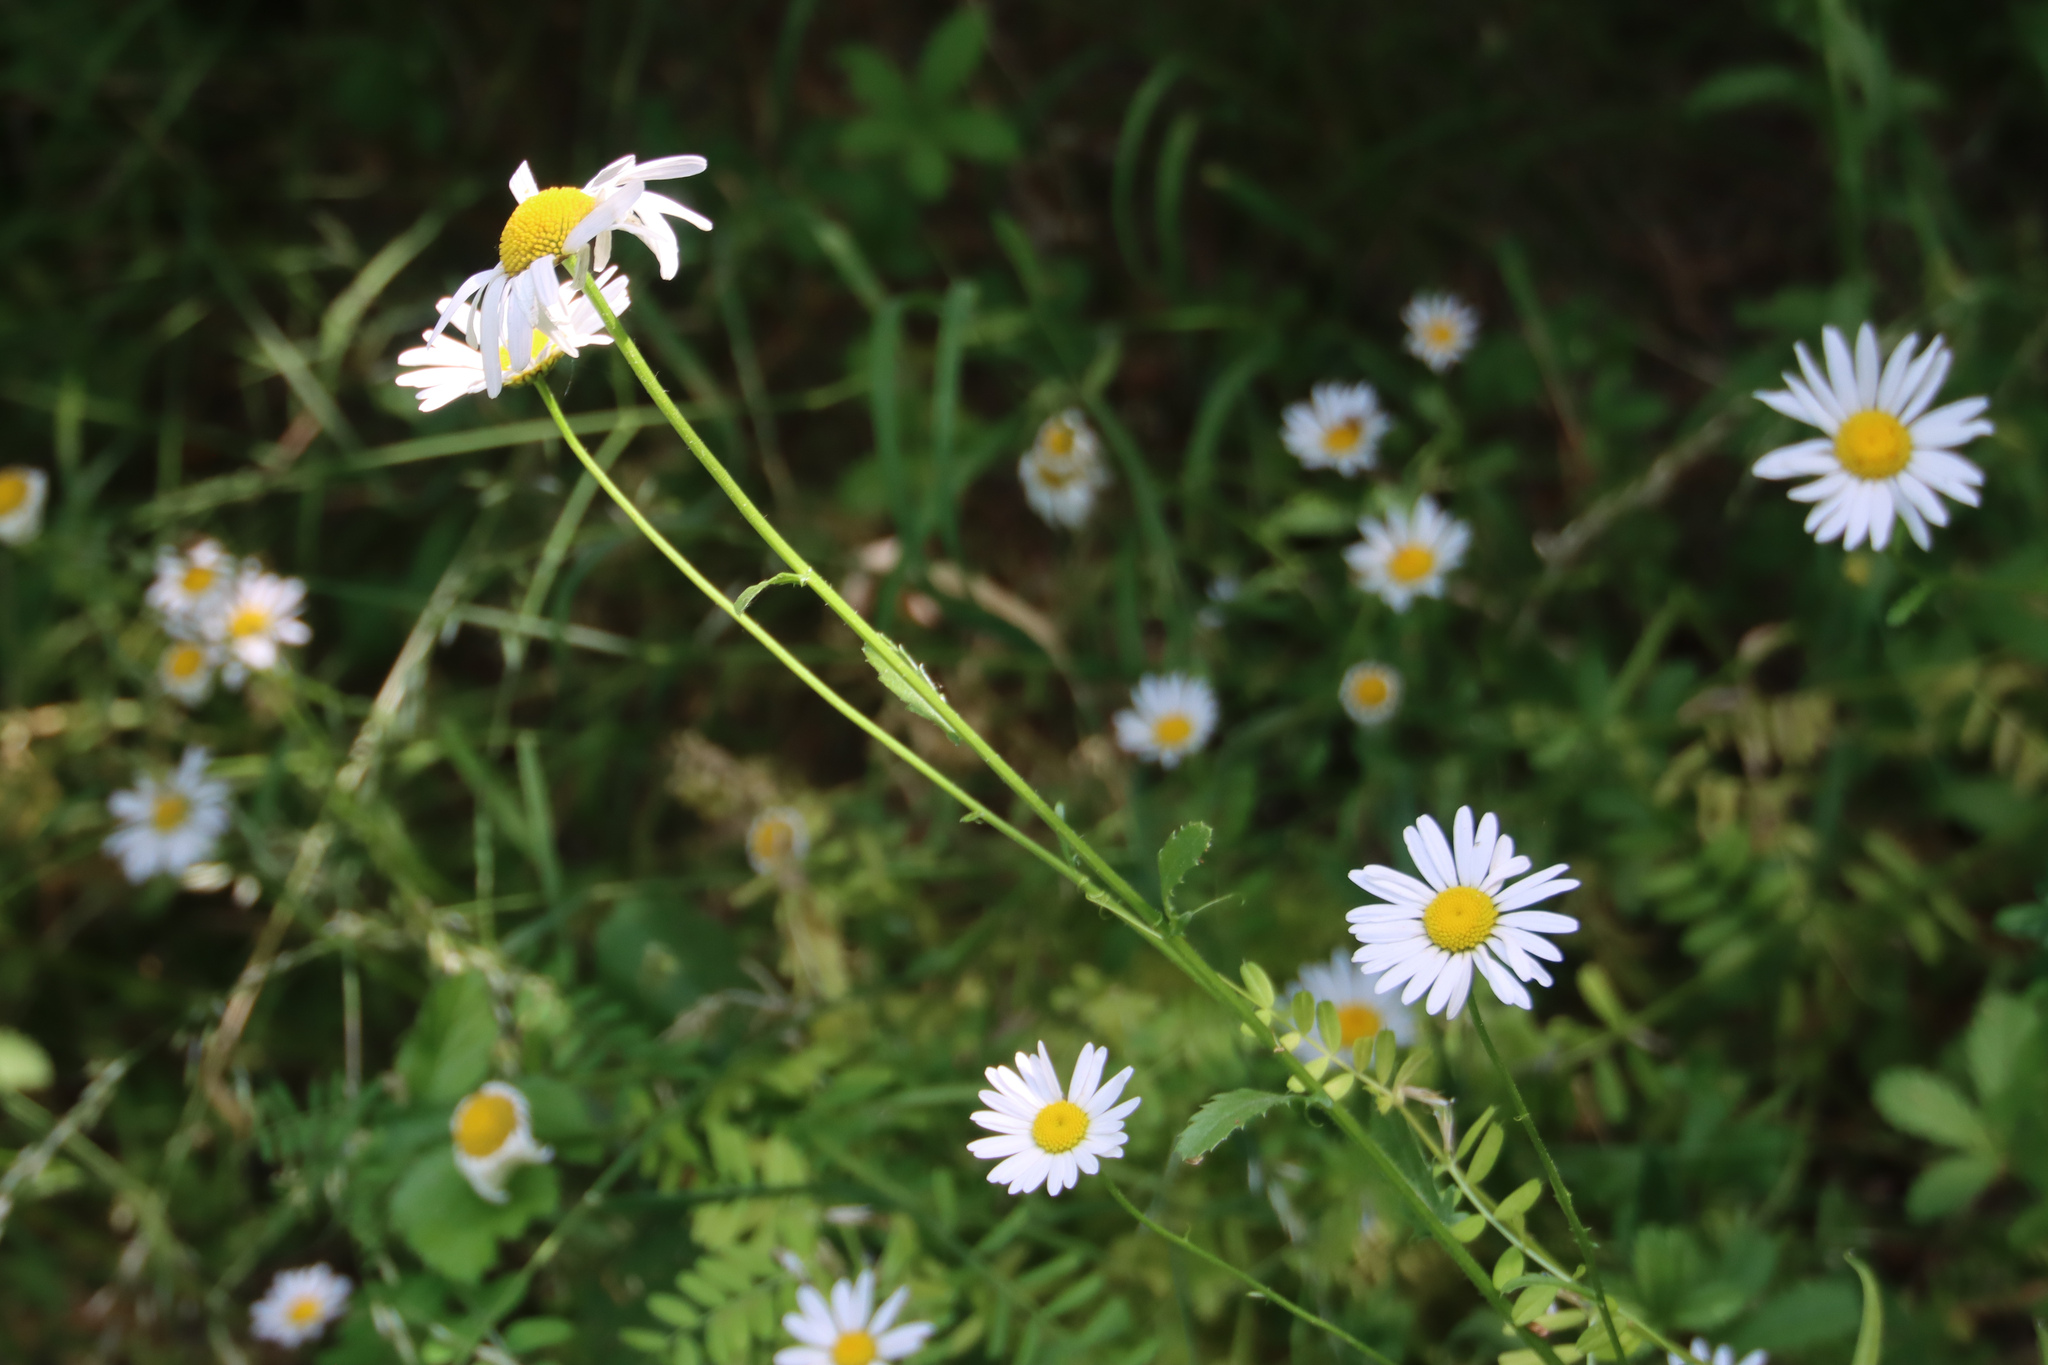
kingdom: Plantae
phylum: Tracheophyta
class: Magnoliopsida
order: Asterales
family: Asteraceae
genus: Leucanthemum
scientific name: Leucanthemum vulgare
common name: Oxeye daisy
